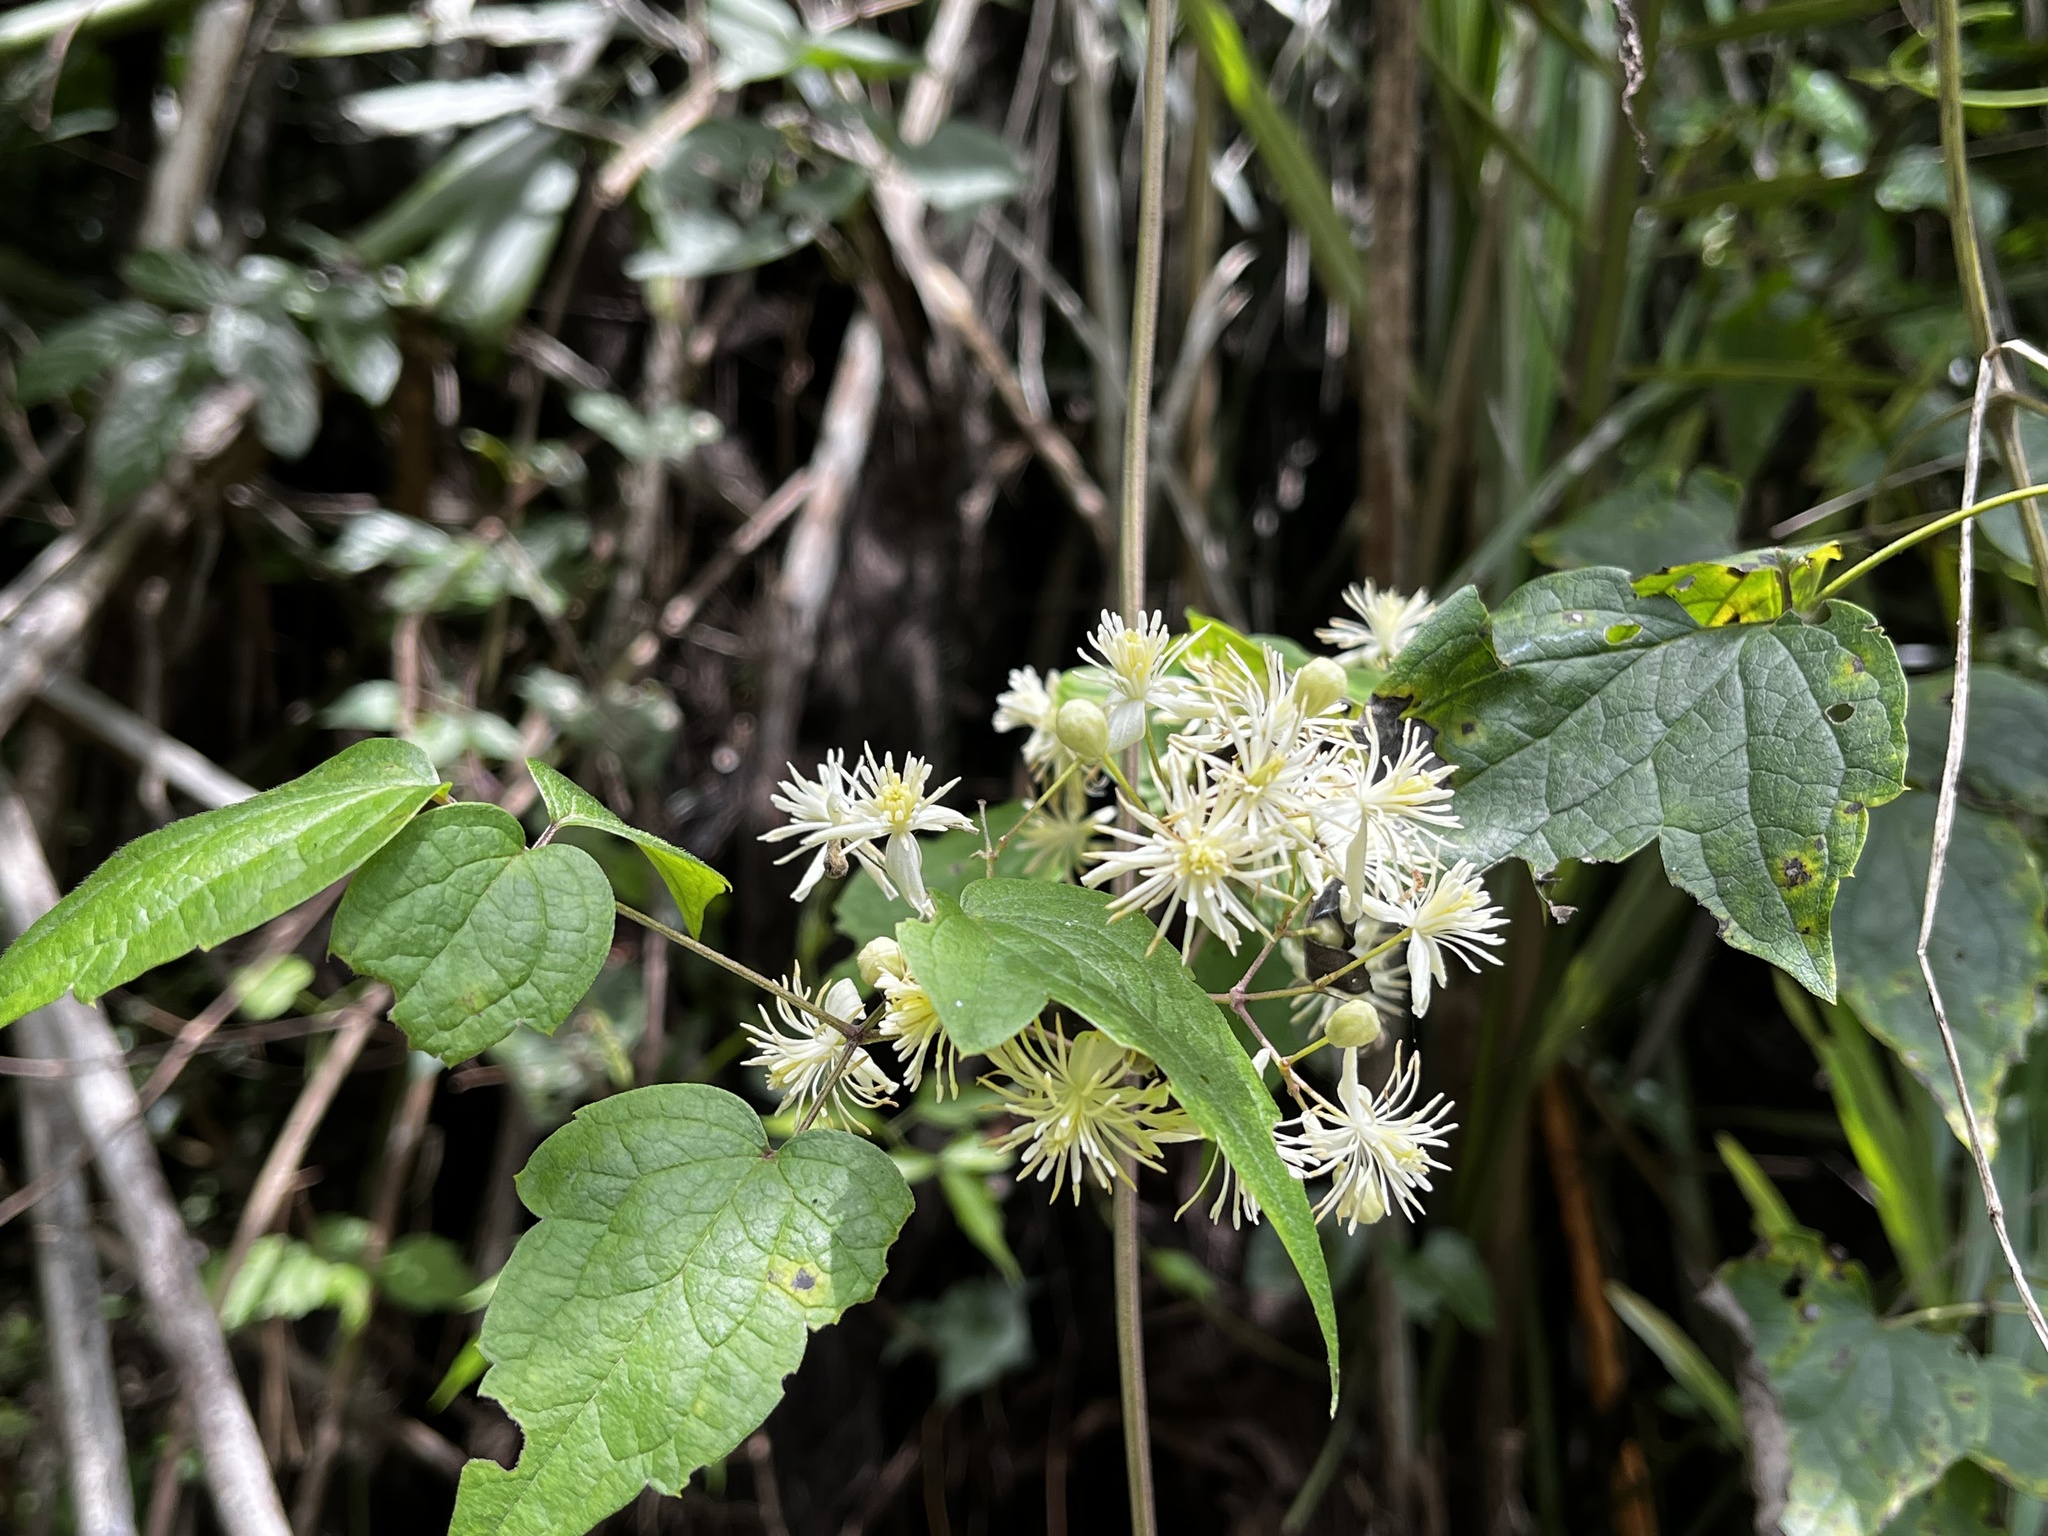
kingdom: Plantae
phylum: Tracheophyta
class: Magnoliopsida
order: Ranunculales
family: Ranunculaceae
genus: Clematis
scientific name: Clematis grata
